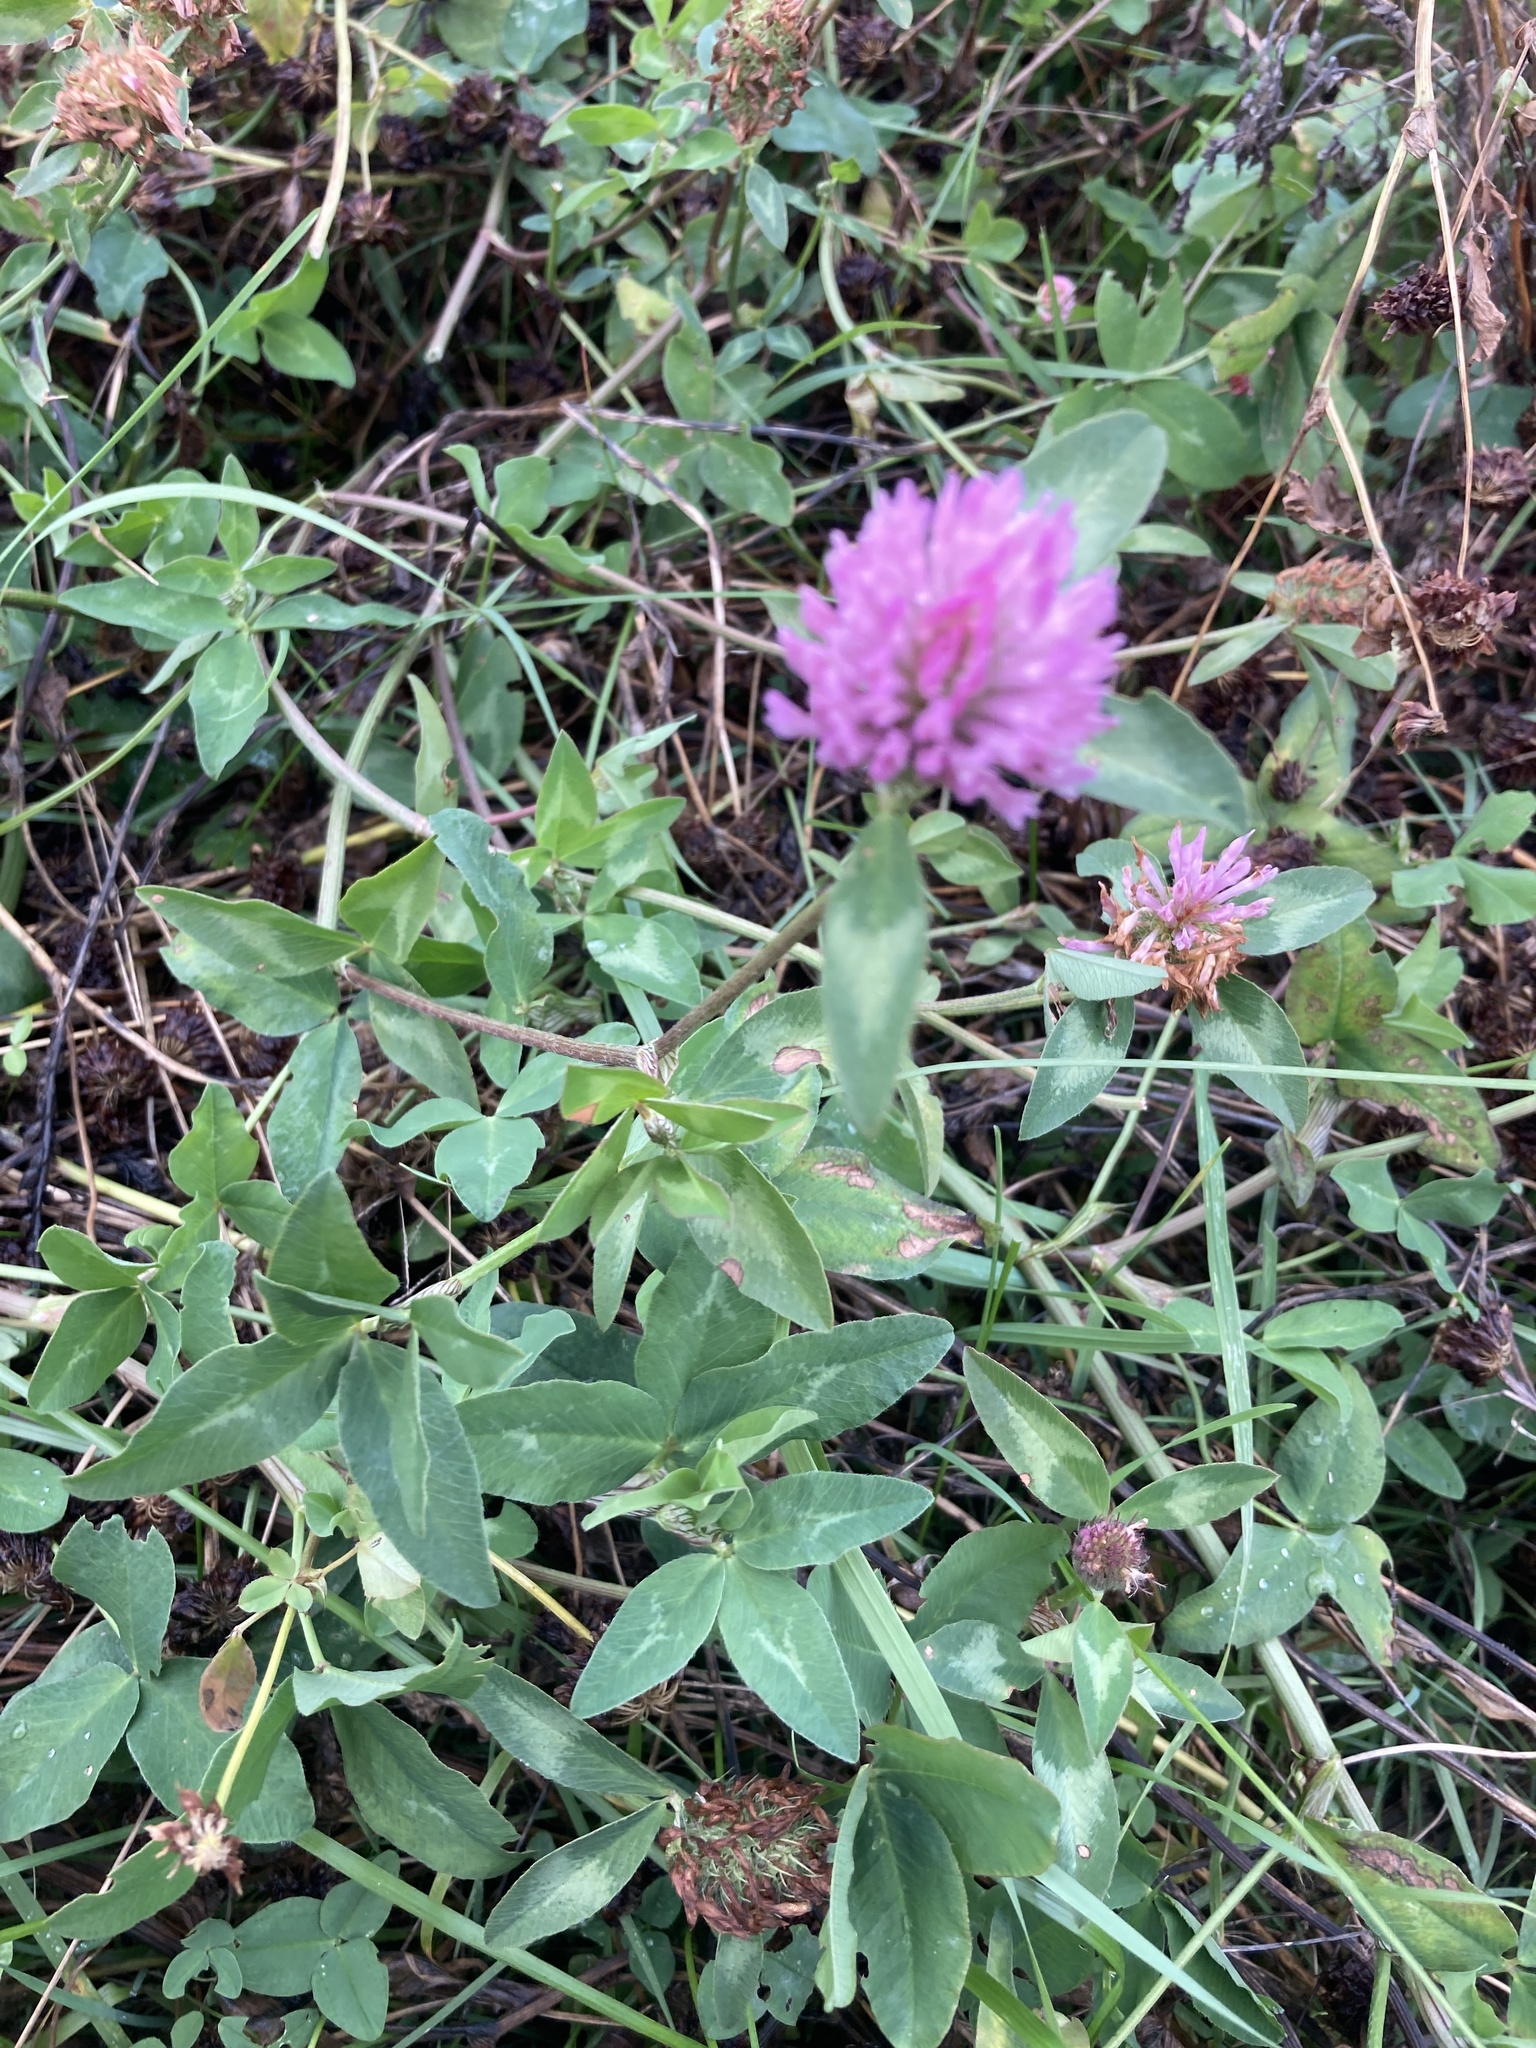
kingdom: Plantae
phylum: Tracheophyta
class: Magnoliopsida
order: Fabales
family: Fabaceae
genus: Trifolium
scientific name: Trifolium pratense
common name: Red clover
